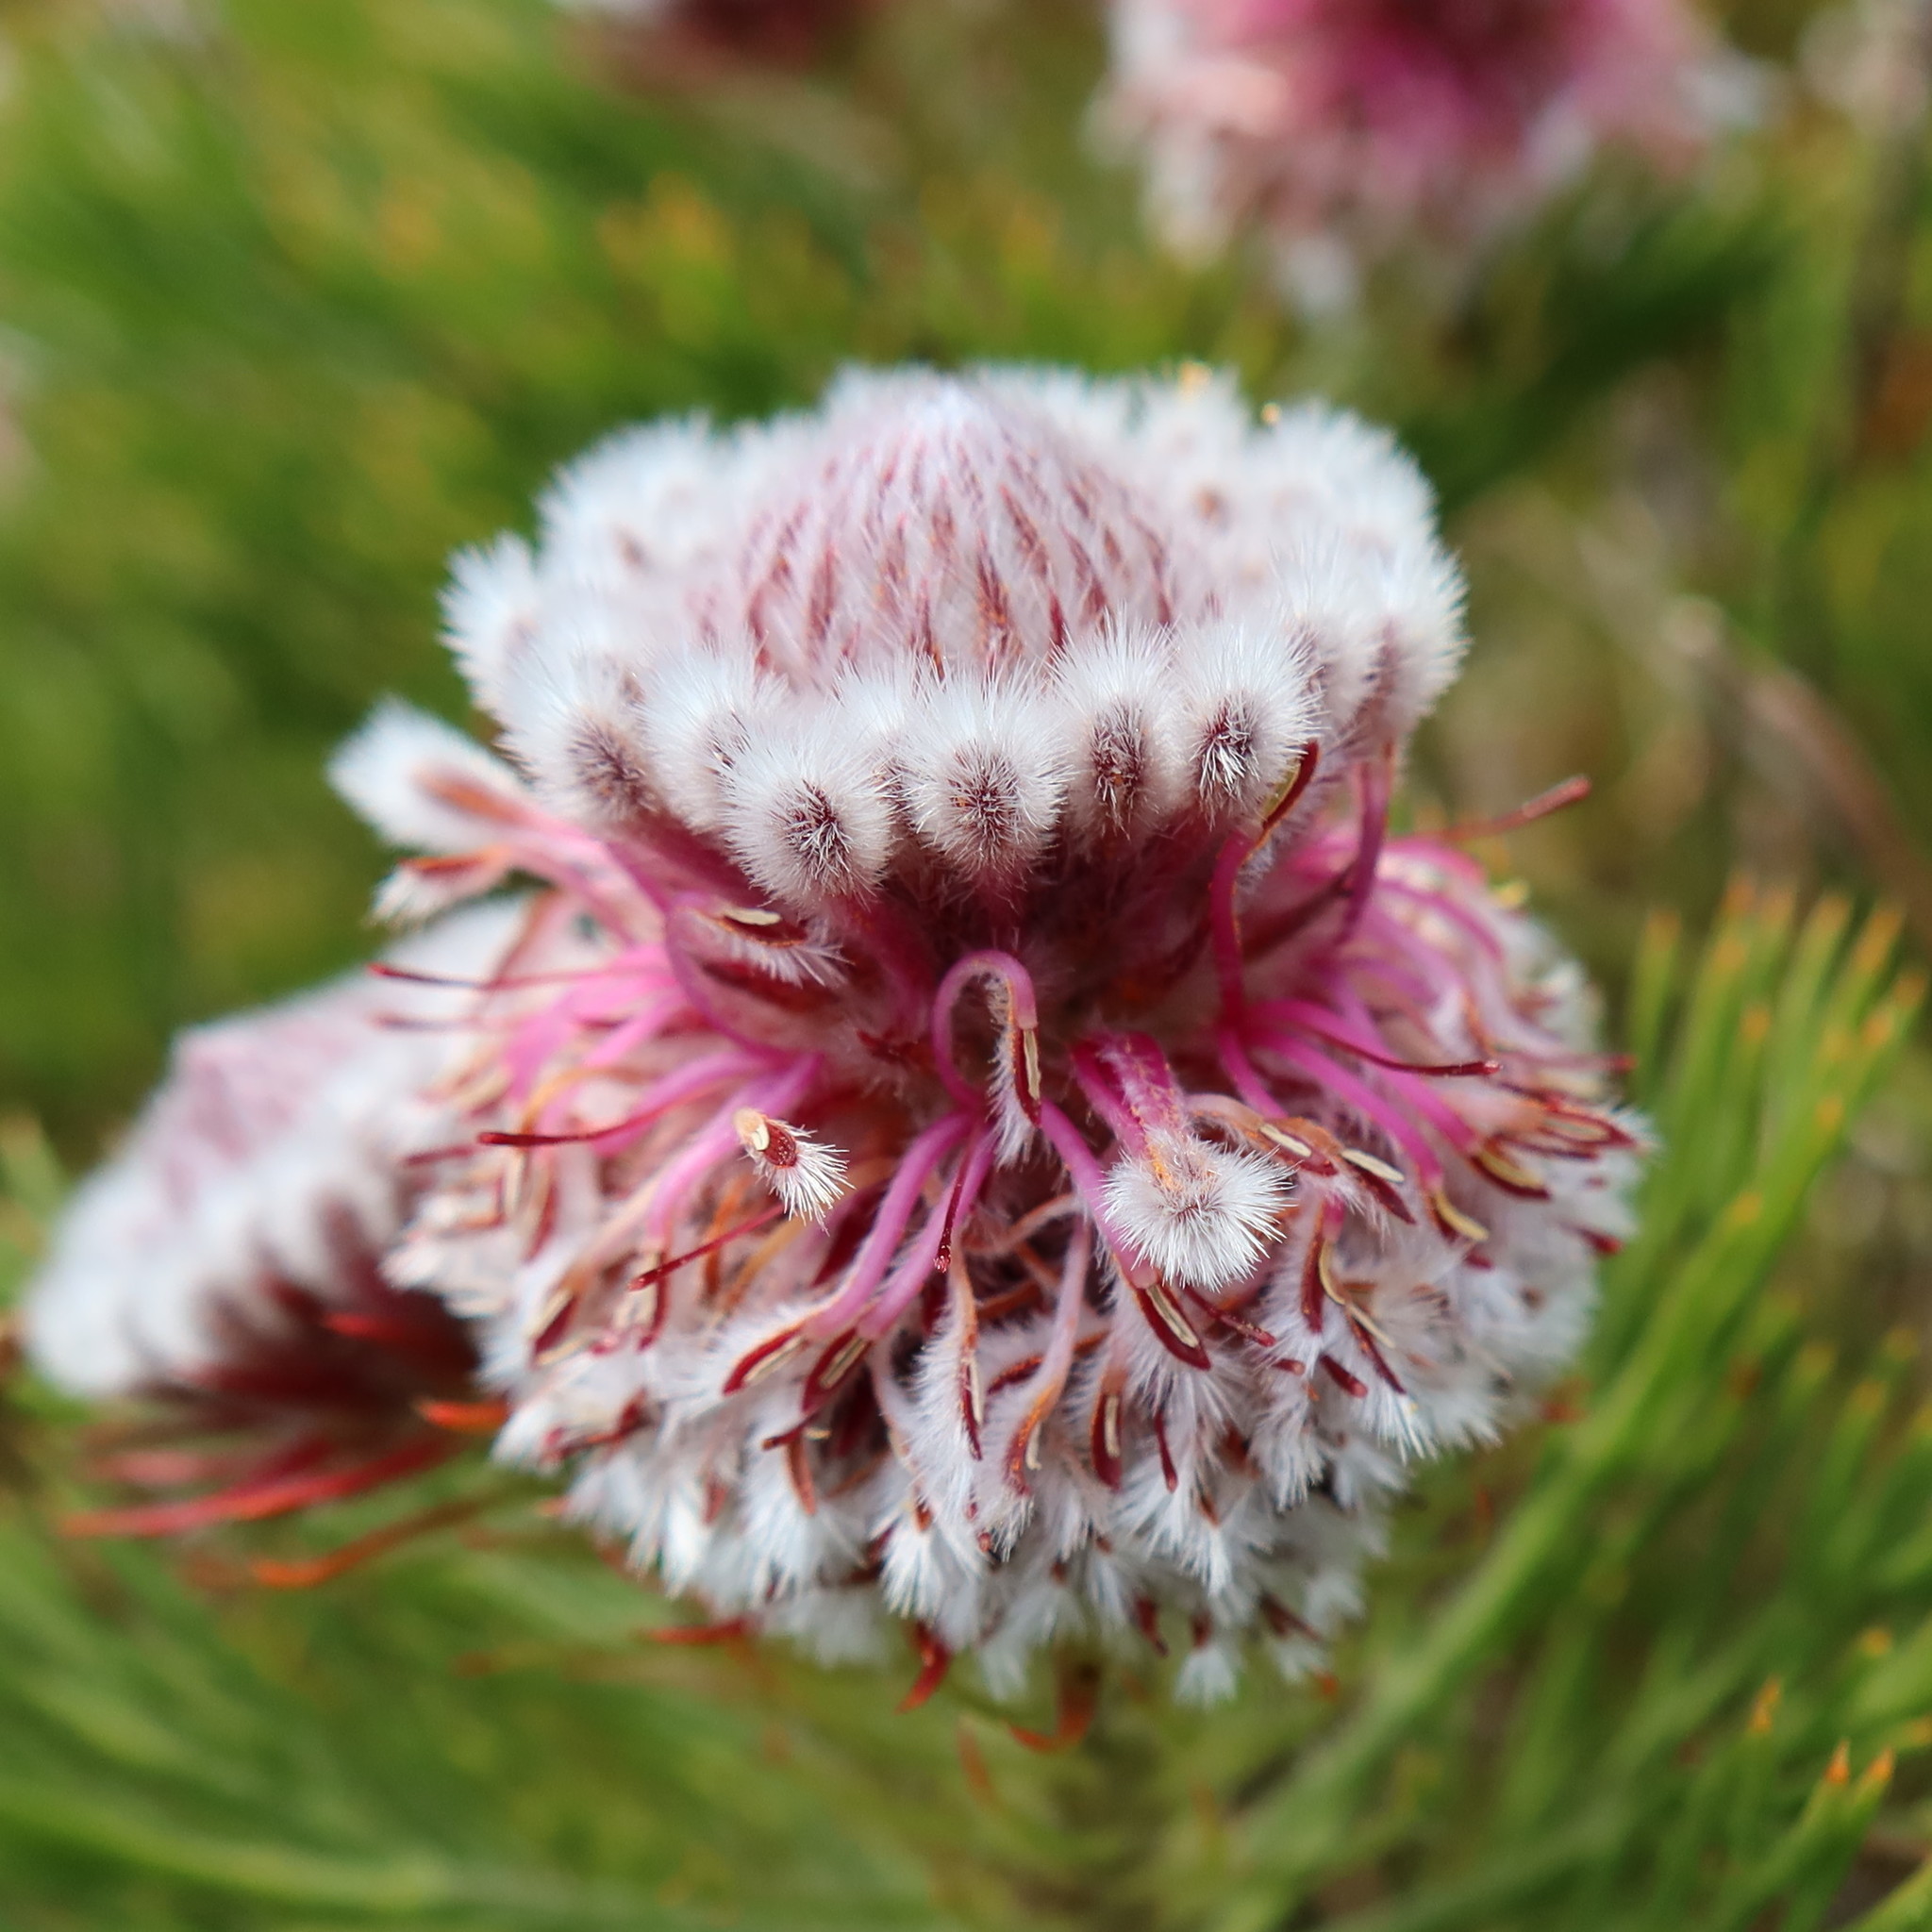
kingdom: Plantae
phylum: Tracheophyta
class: Magnoliopsida
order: Proteales
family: Proteaceae
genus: Serruria
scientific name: Serruria hirsuta
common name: Swartkops spiderhead
